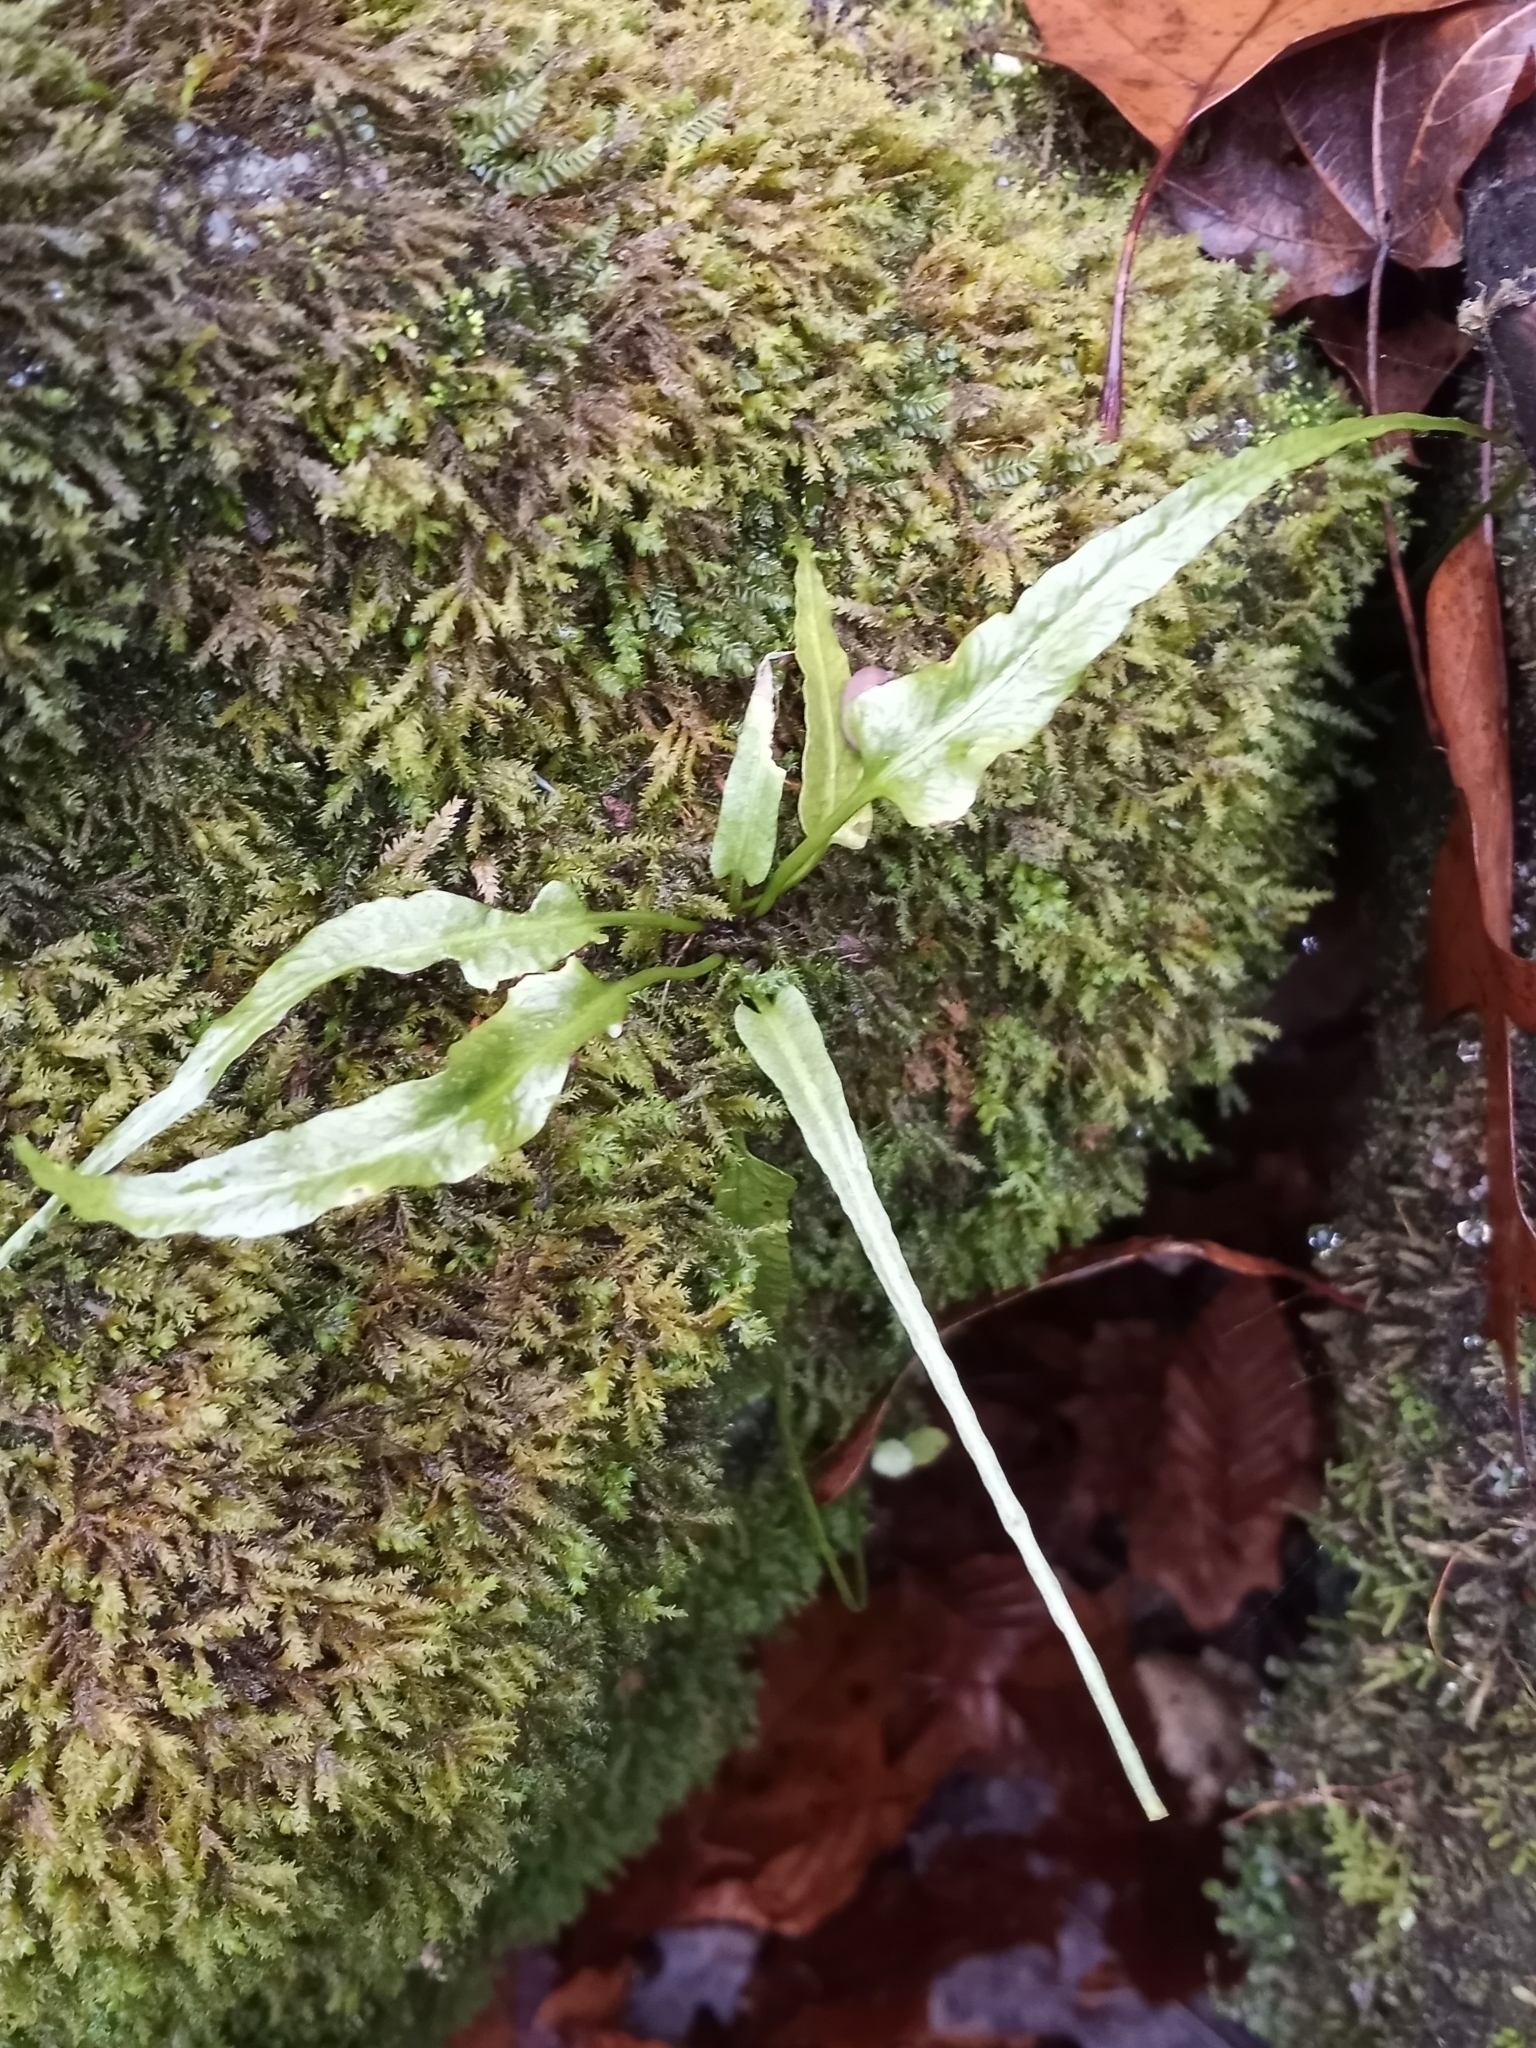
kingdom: Plantae
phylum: Tracheophyta
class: Polypodiopsida
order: Polypodiales
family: Aspleniaceae
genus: Asplenium
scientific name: Asplenium rhizophyllum
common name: Walking fern
